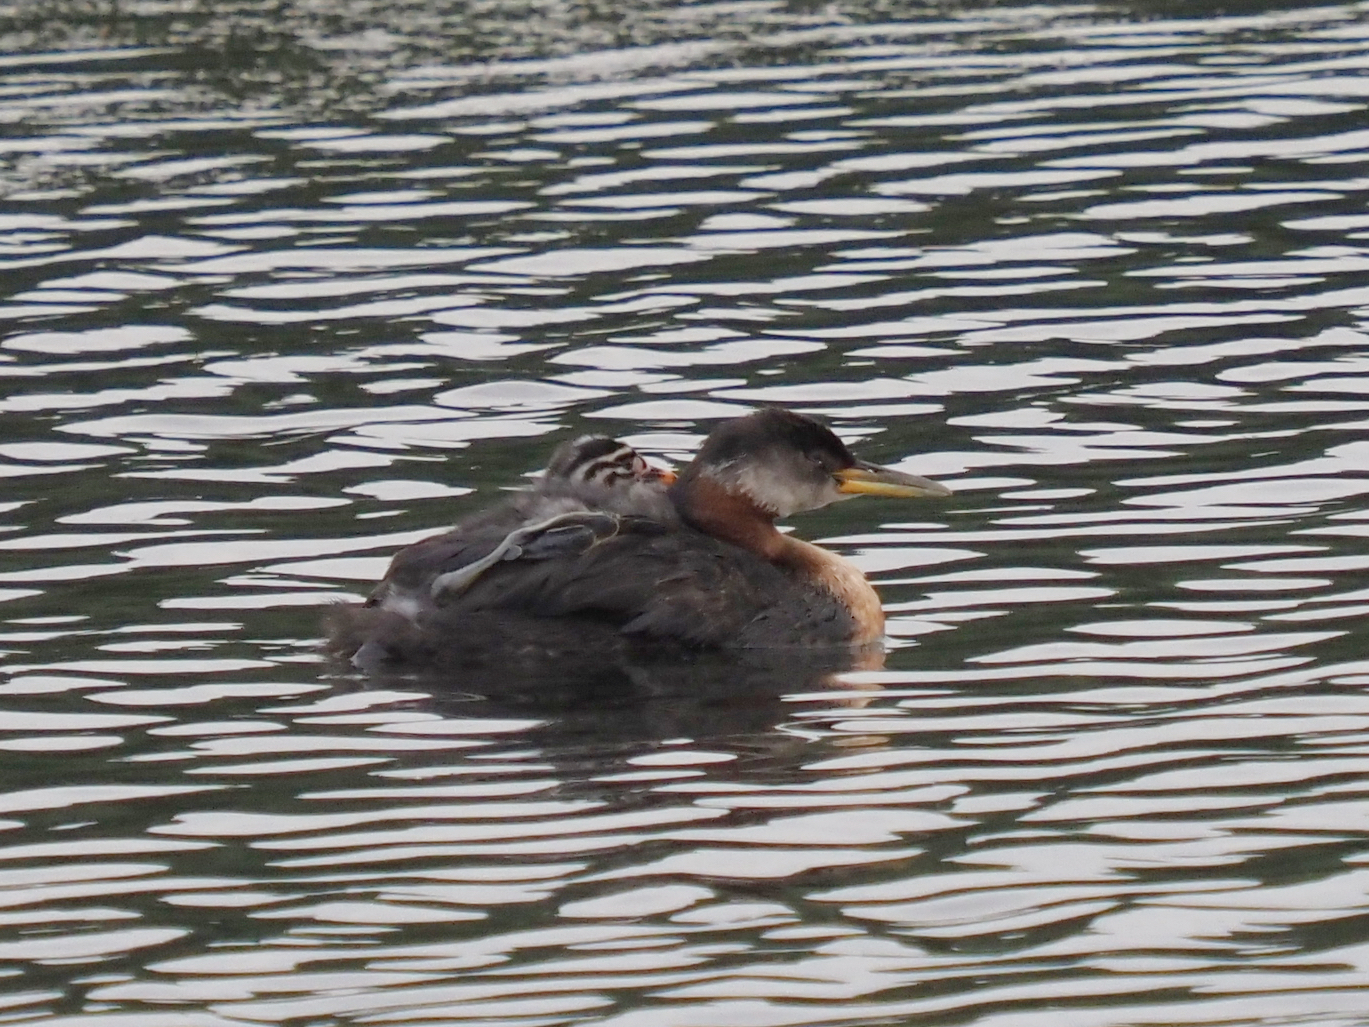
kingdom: Animalia
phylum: Chordata
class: Aves
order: Podicipediformes
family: Podicipedidae
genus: Podiceps
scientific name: Podiceps grisegena
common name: Red-necked grebe
